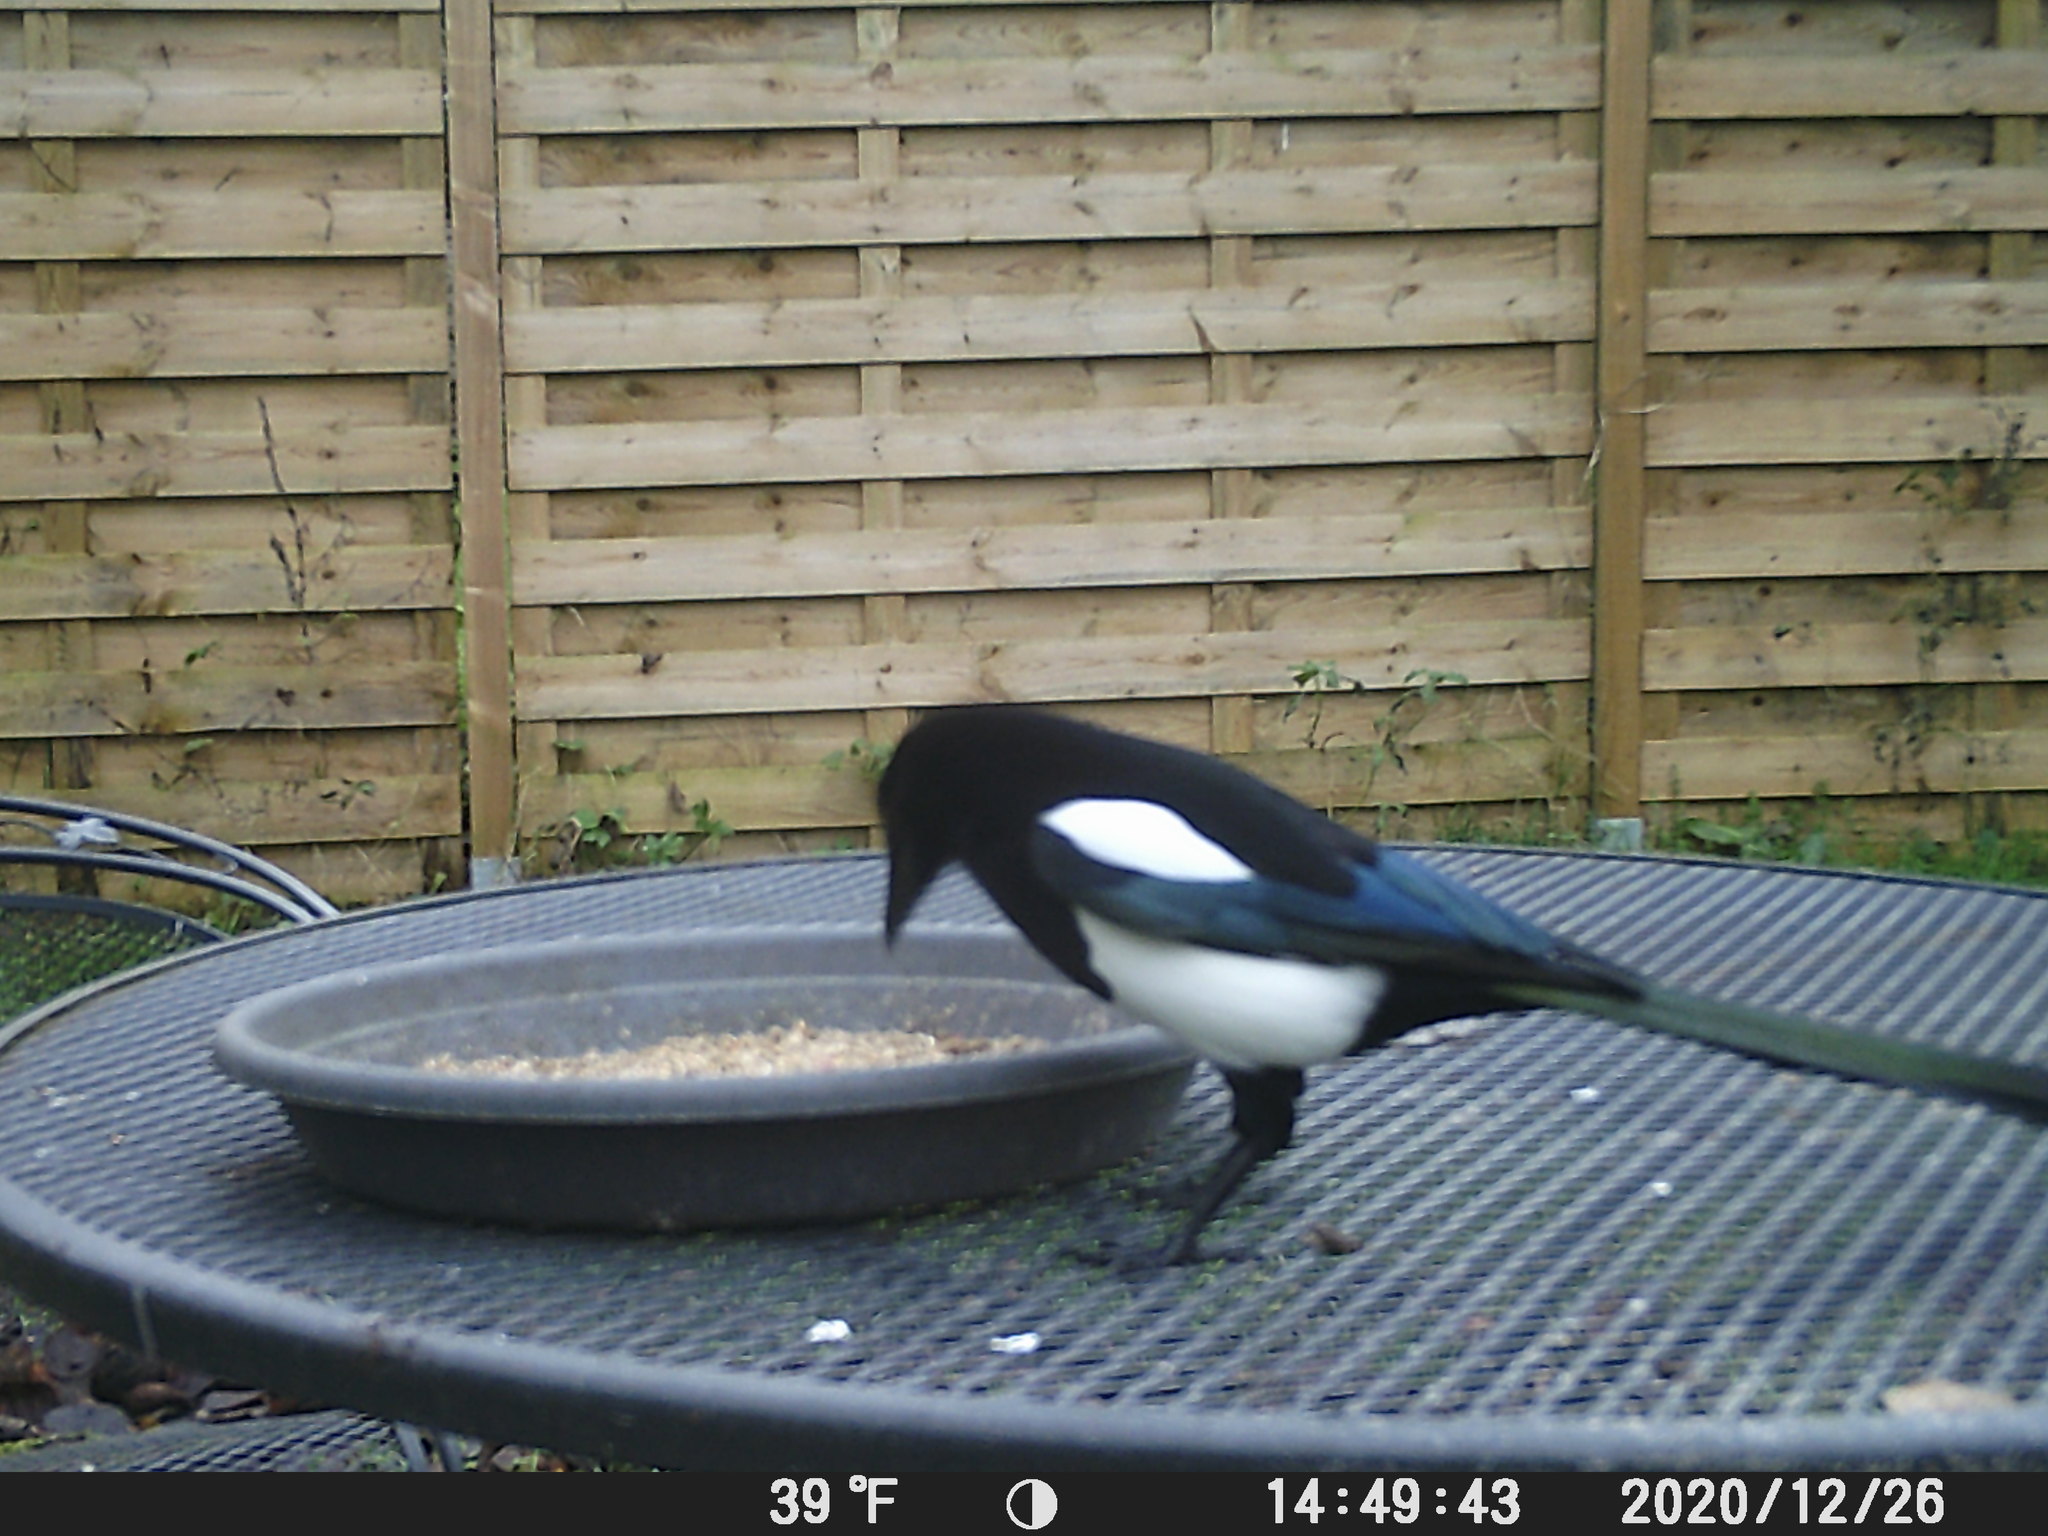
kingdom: Animalia
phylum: Chordata
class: Aves
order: Passeriformes
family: Corvidae
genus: Pica
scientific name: Pica pica
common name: Eurasian magpie
